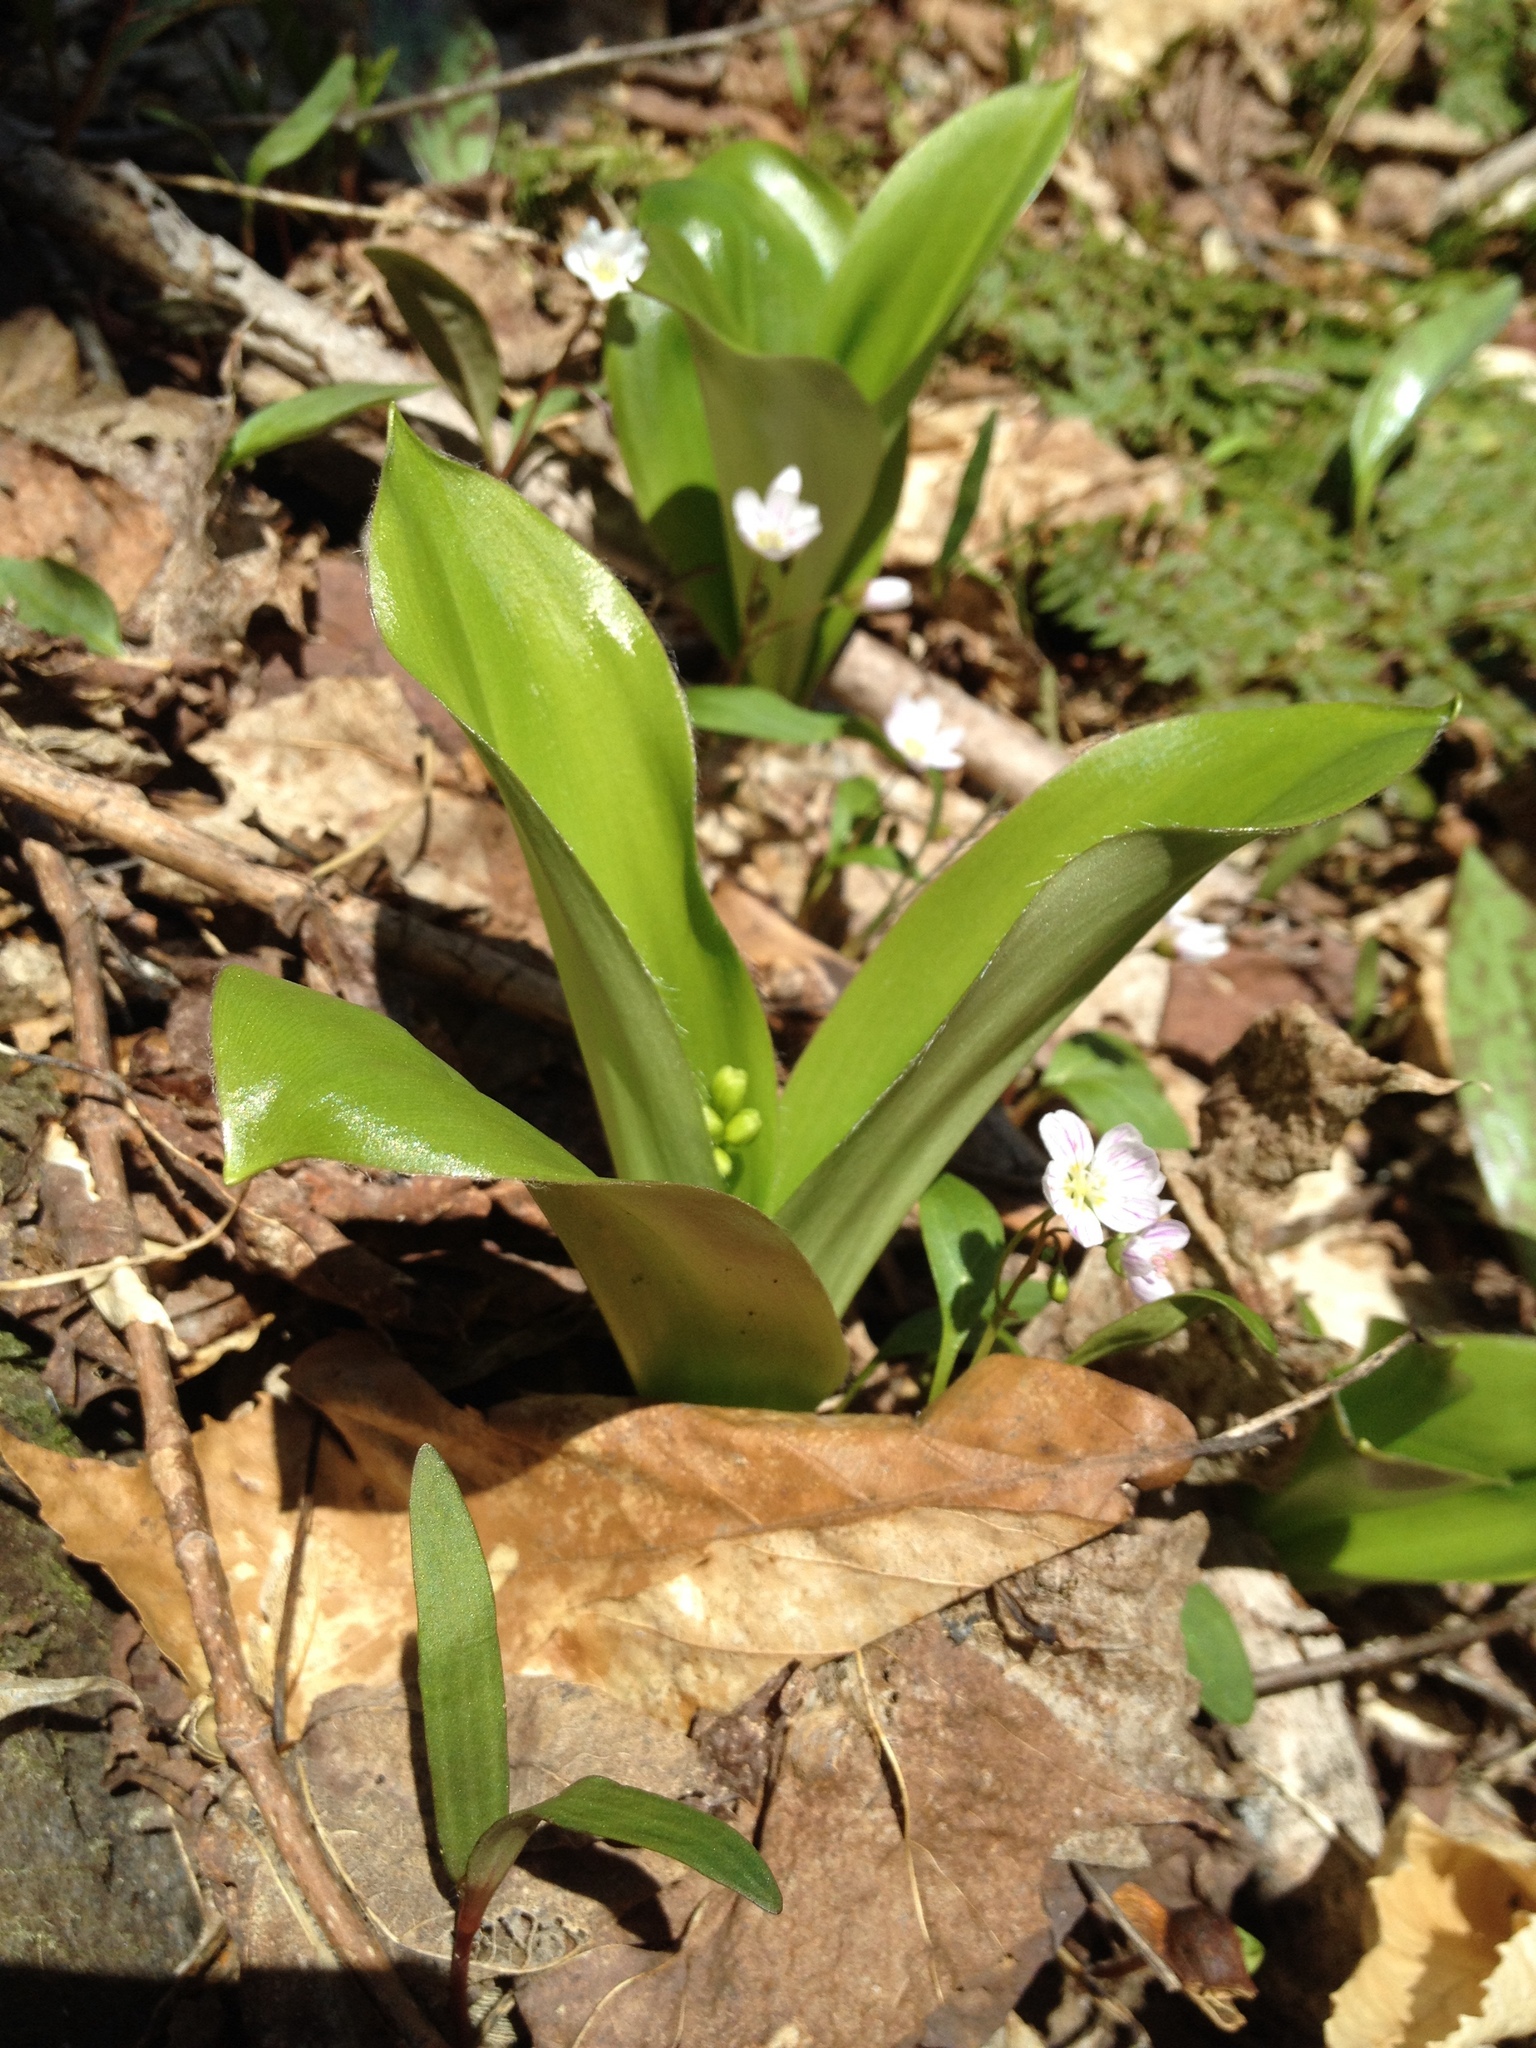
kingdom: Plantae
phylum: Tracheophyta
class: Liliopsida
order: Liliales
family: Liliaceae
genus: Clintonia
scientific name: Clintonia borealis
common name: Yellow clintonia
